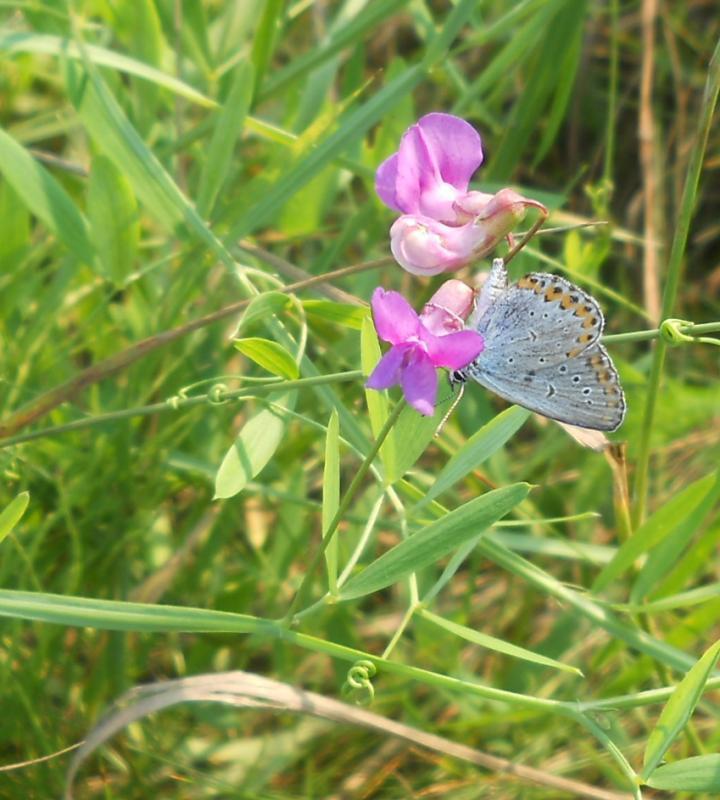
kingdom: Animalia
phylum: Arthropoda
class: Insecta
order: Lepidoptera
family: Lycaenidae
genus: Plebejus
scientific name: Plebejus argyrognomon
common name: Reverdin's blue
